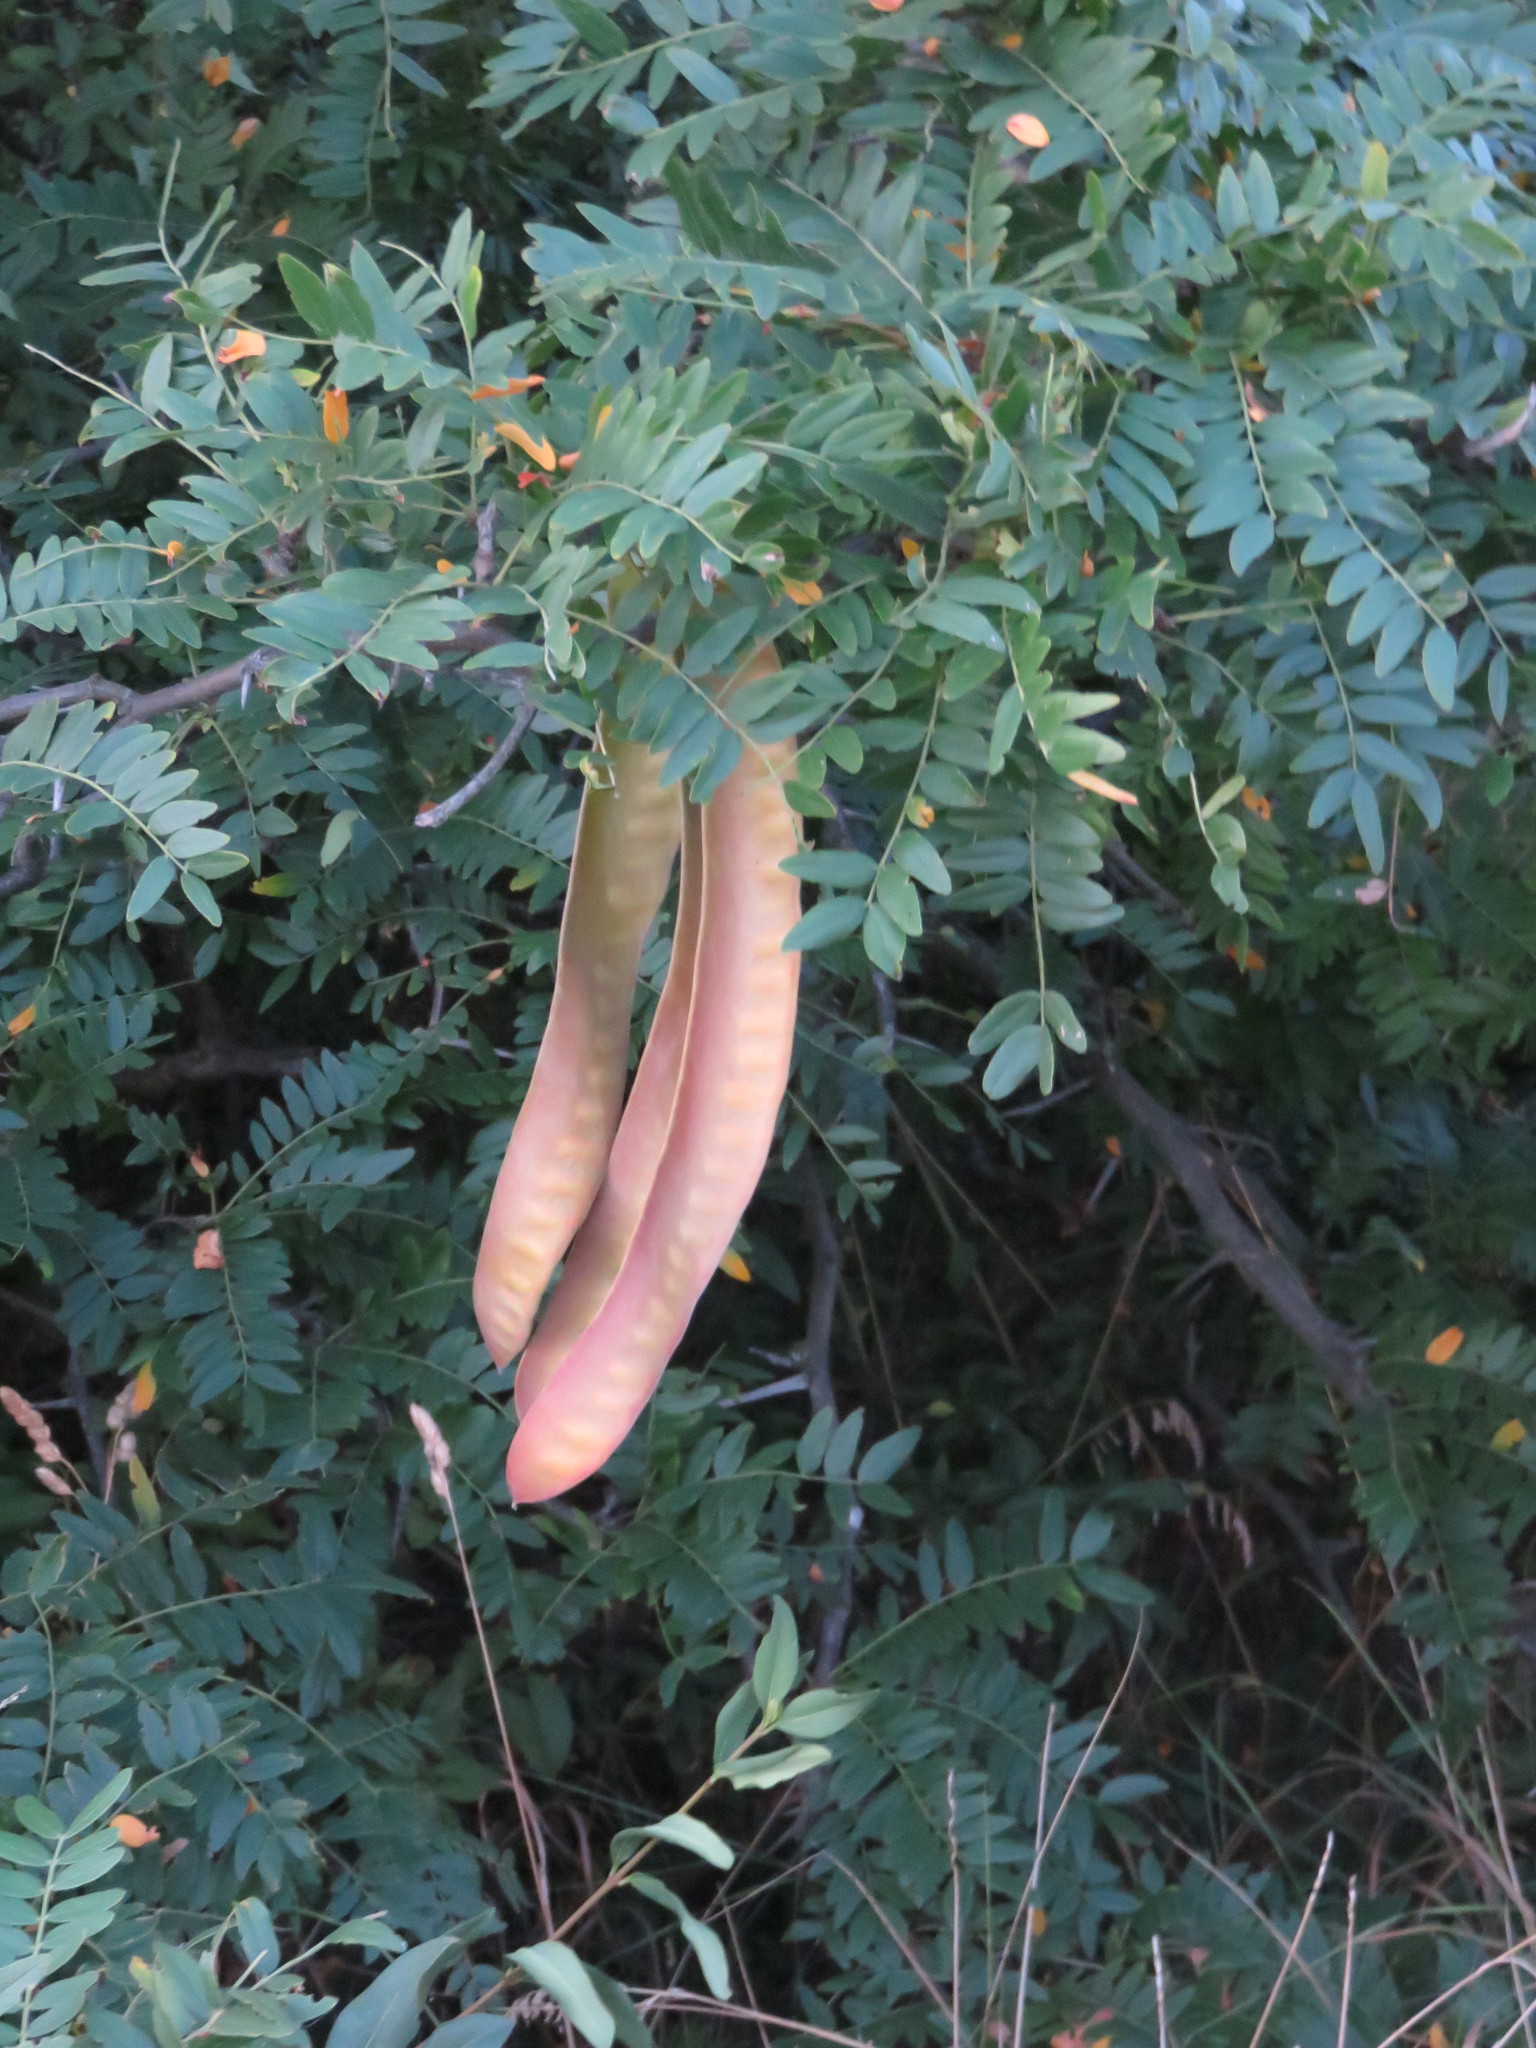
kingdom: Plantae
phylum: Tracheophyta
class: Magnoliopsida
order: Fabales
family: Fabaceae
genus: Gleditsia
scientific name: Gleditsia triacanthos
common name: Common honeylocust
